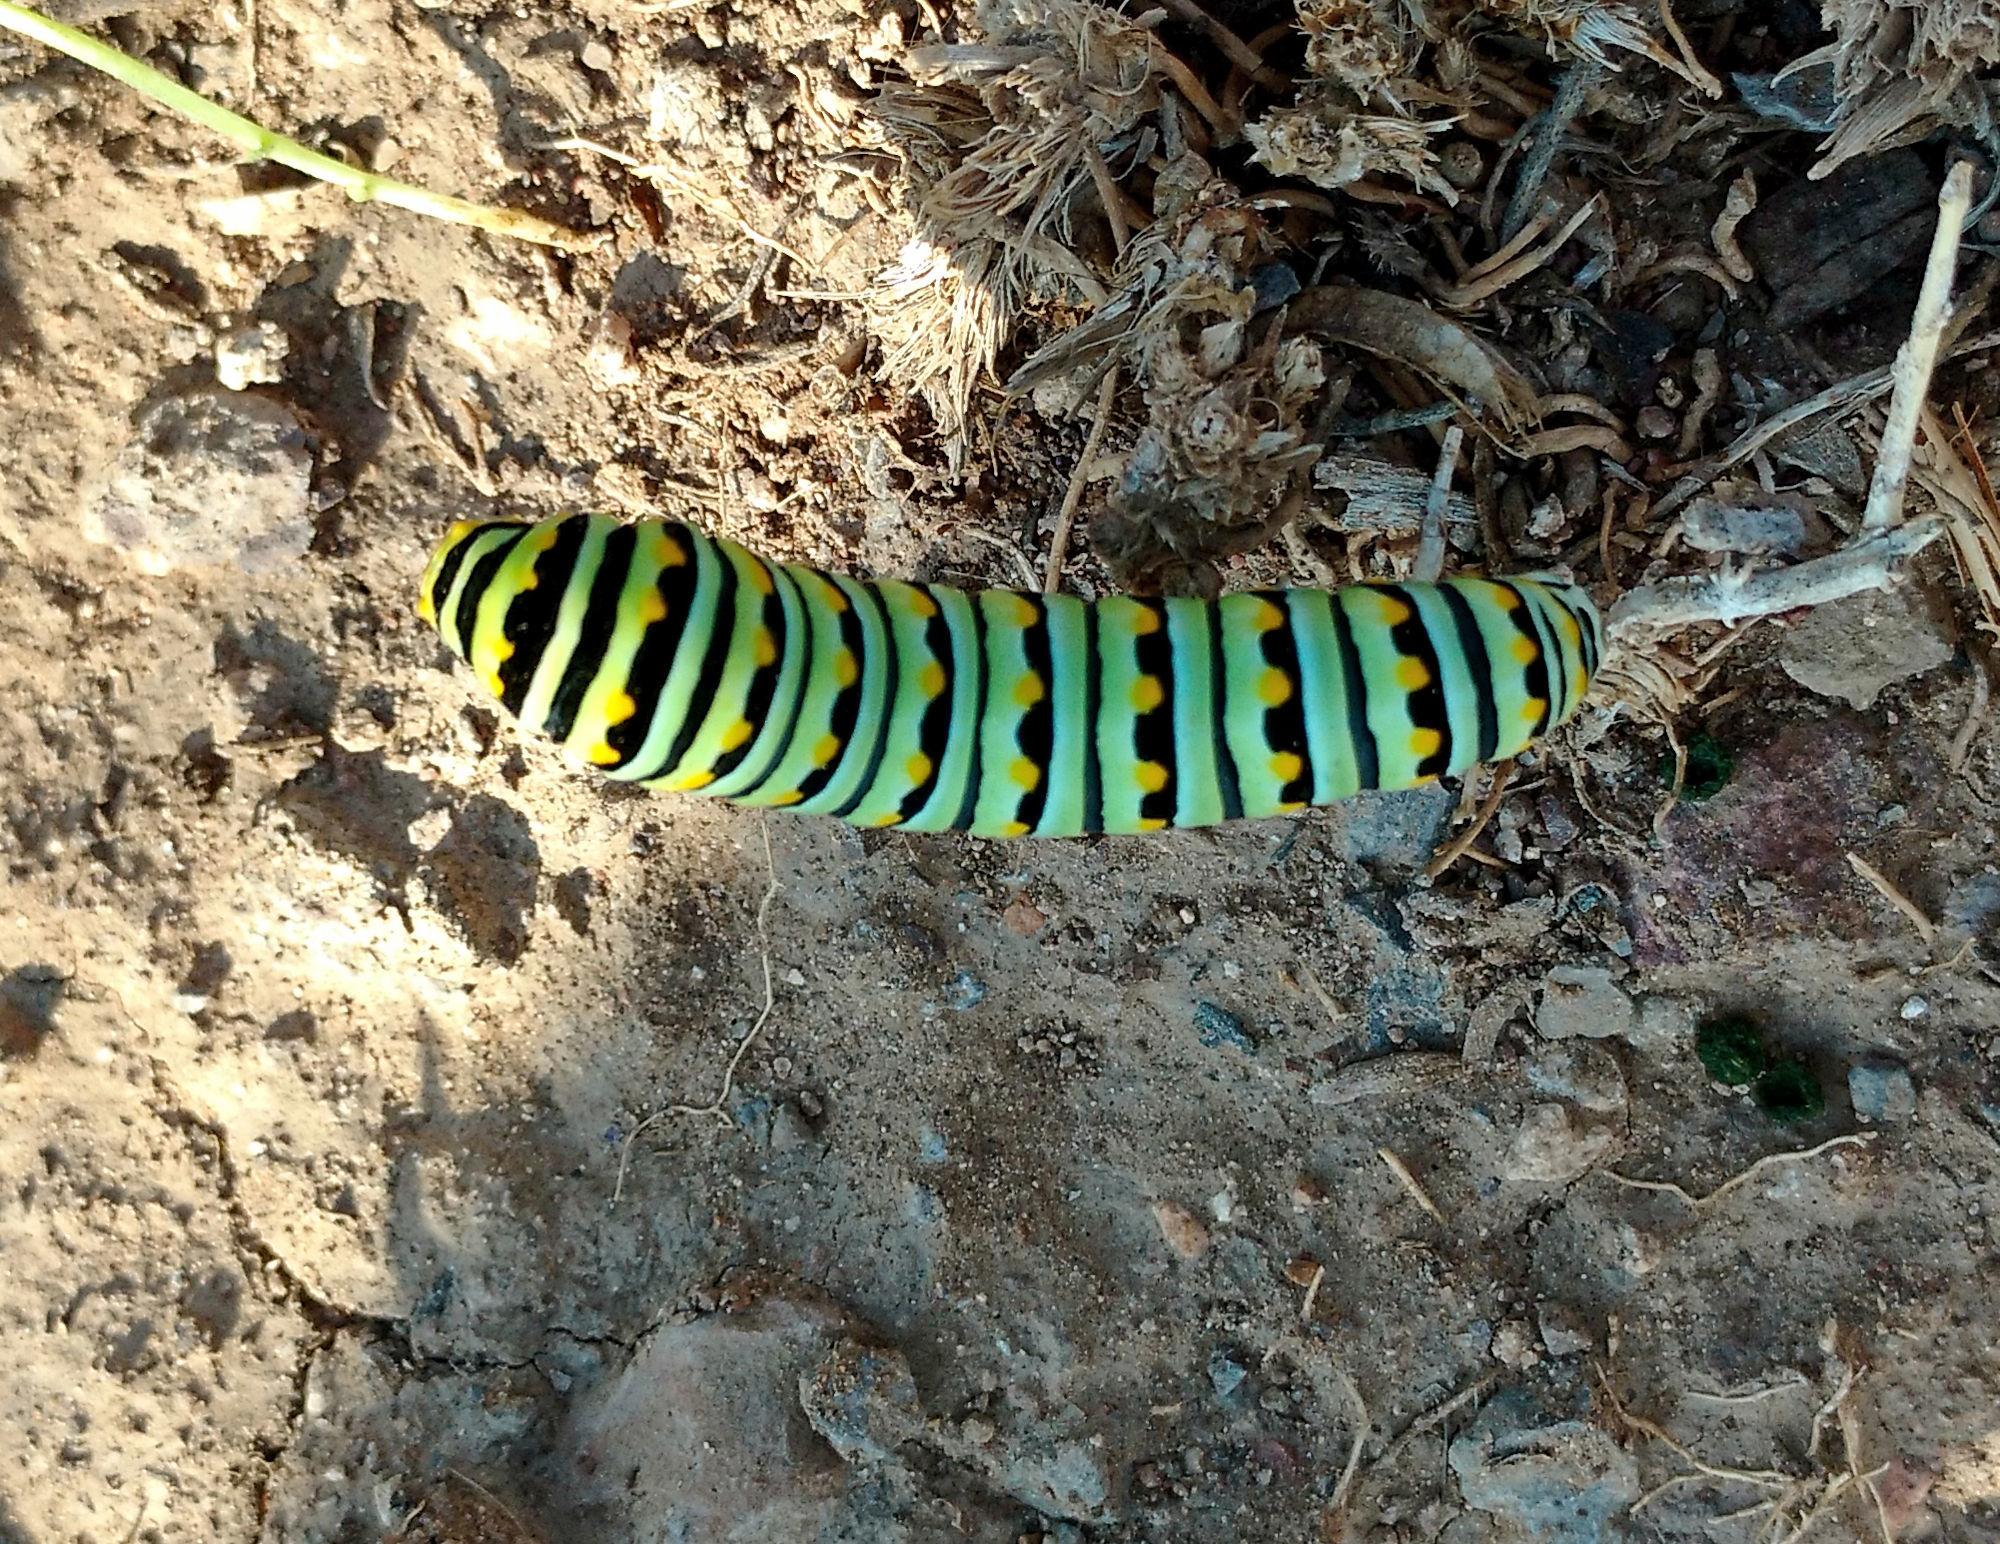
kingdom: Animalia
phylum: Arthropoda
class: Insecta
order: Lepidoptera
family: Papilionidae
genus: Papilio
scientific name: Papilio polyxenes
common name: Black swallowtail
